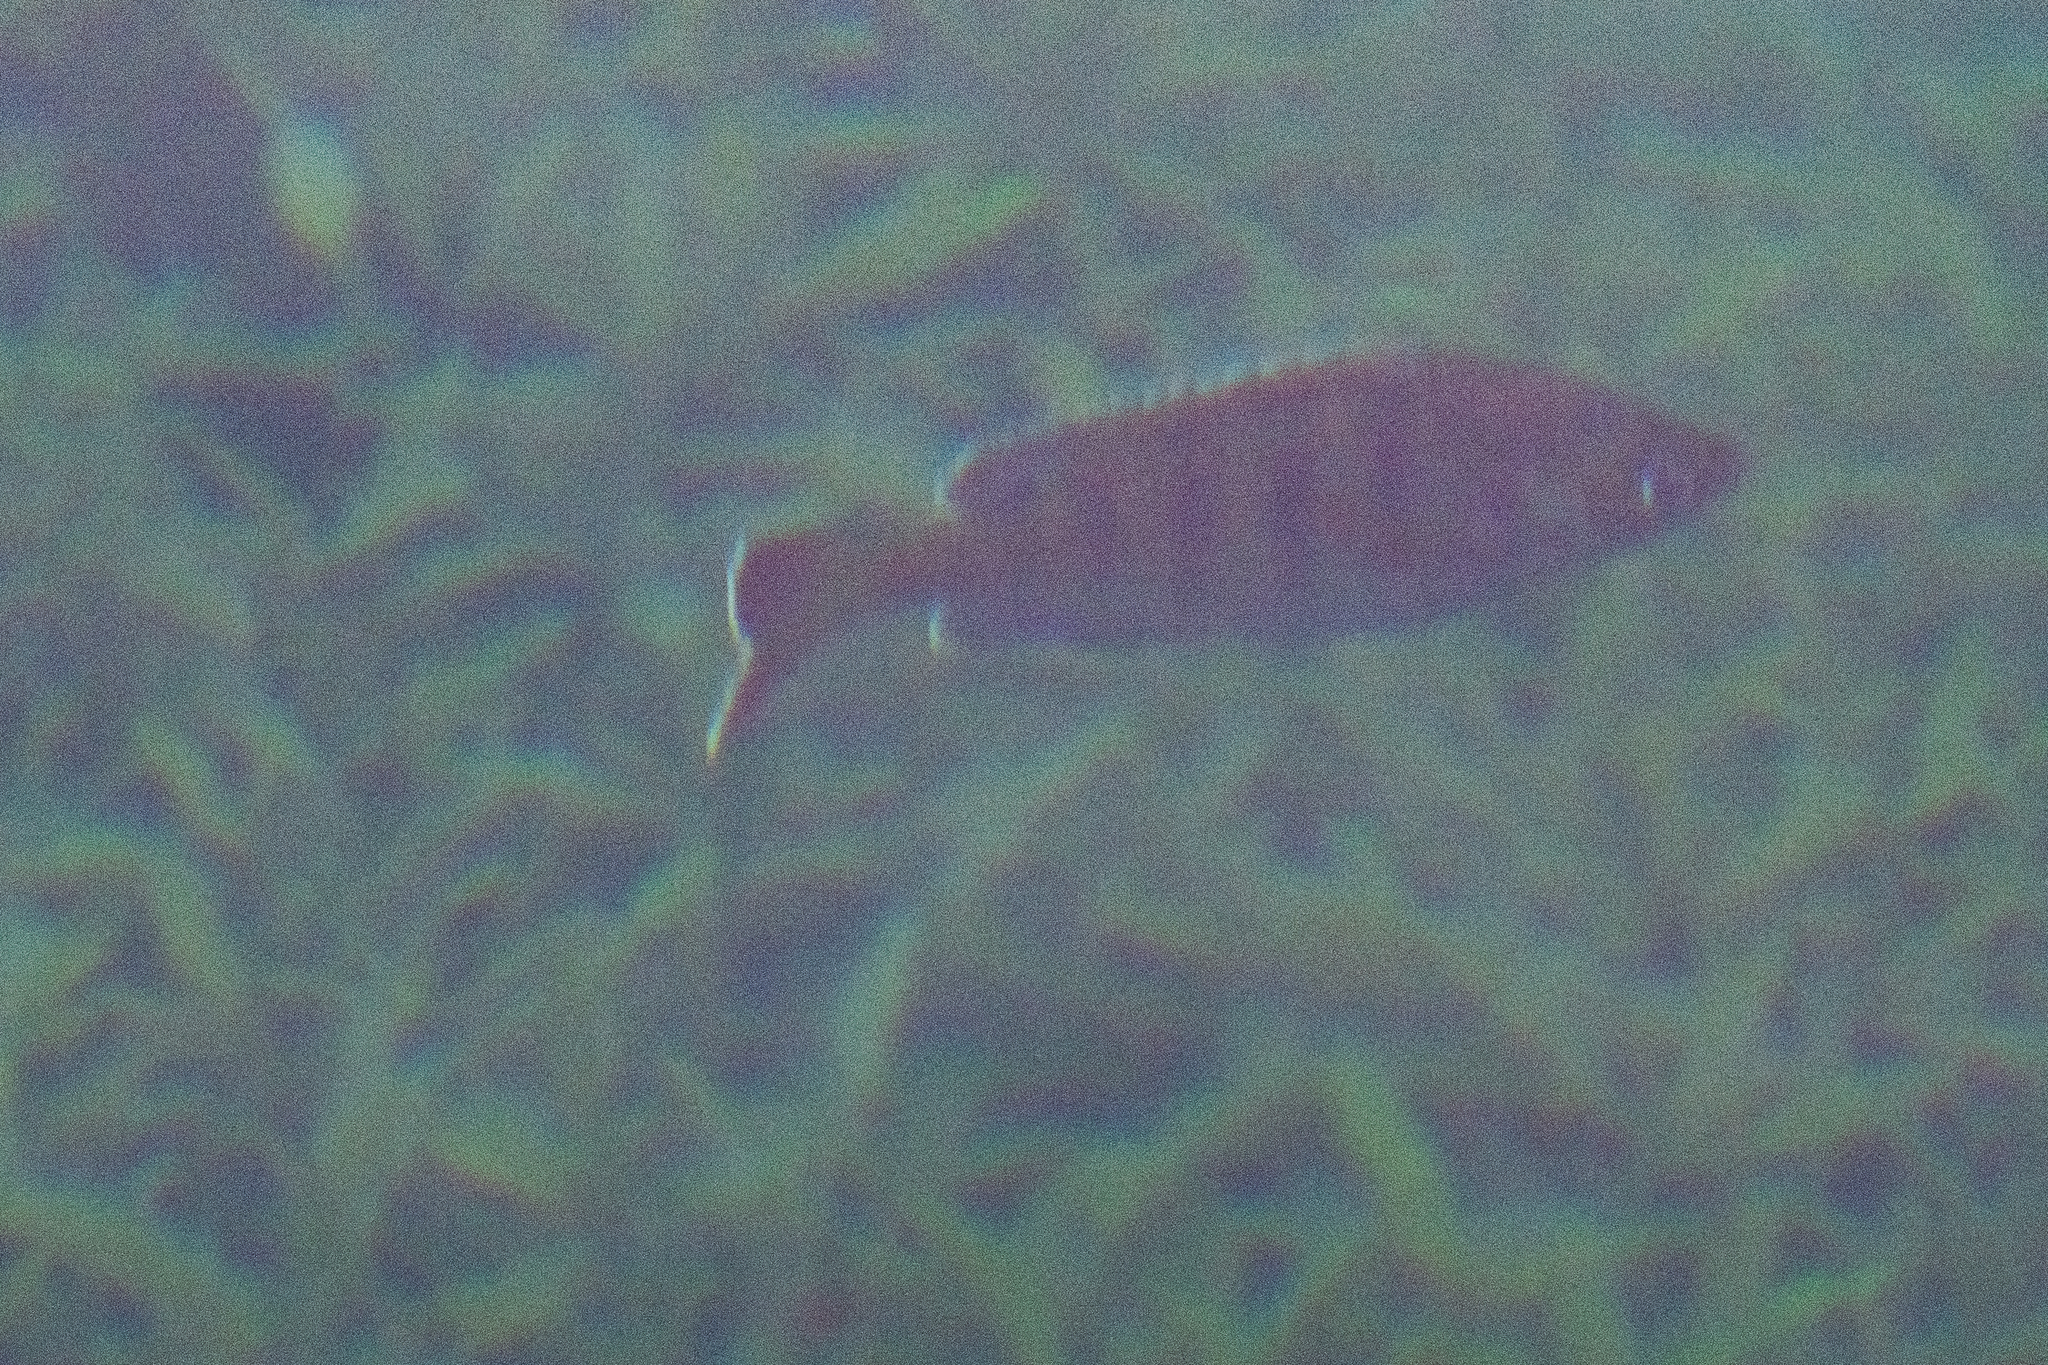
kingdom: Animalia
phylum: Chordata
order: Perciformes
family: Centrarchidae
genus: Lepomis
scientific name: Lepomis macrochirus
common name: Bluegill
